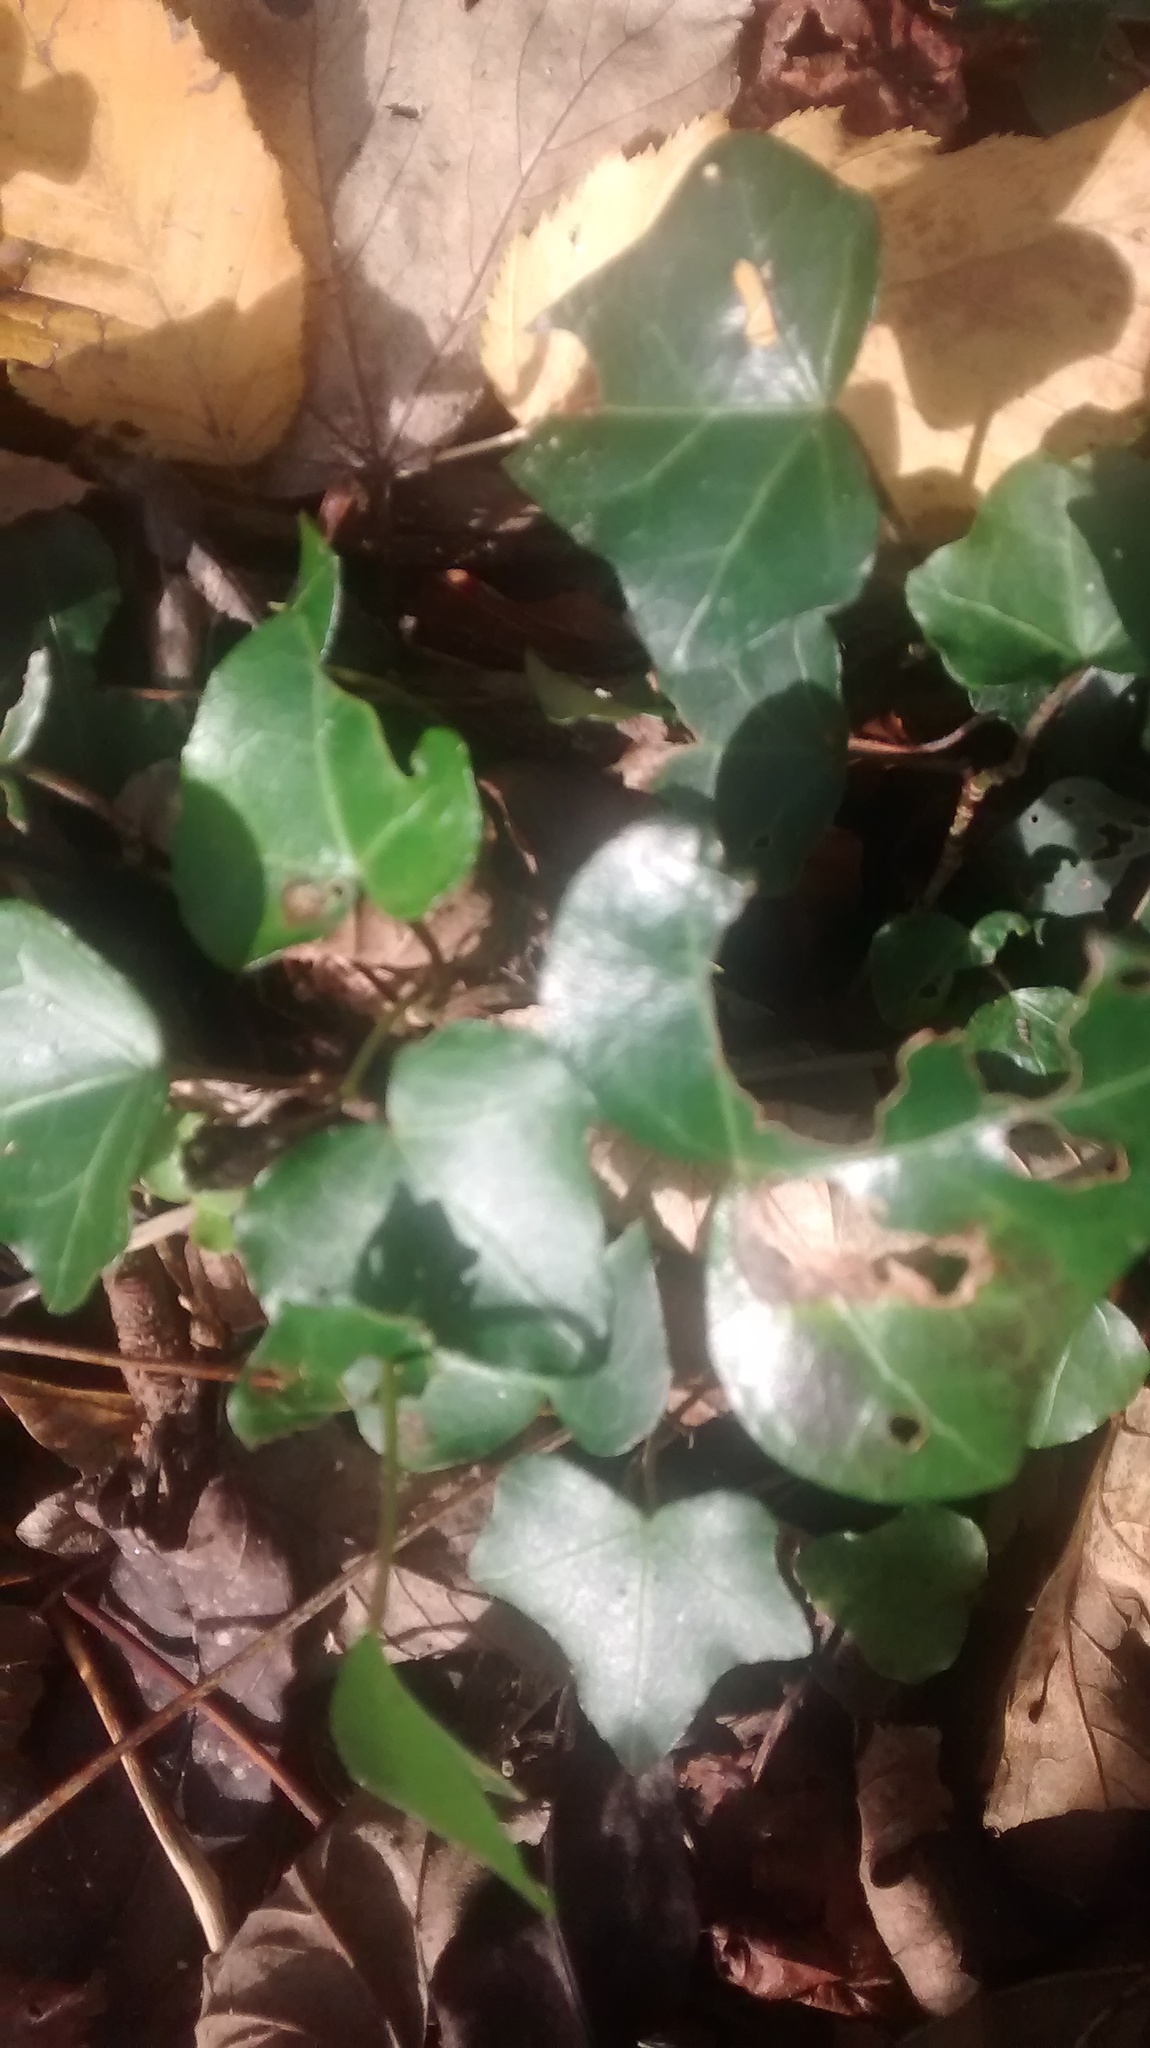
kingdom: Plantae
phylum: Tracheophyta
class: Magnoliopsida
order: Apiales
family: Araliaceae
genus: Hedera
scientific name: Hedera helix
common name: Ivy
